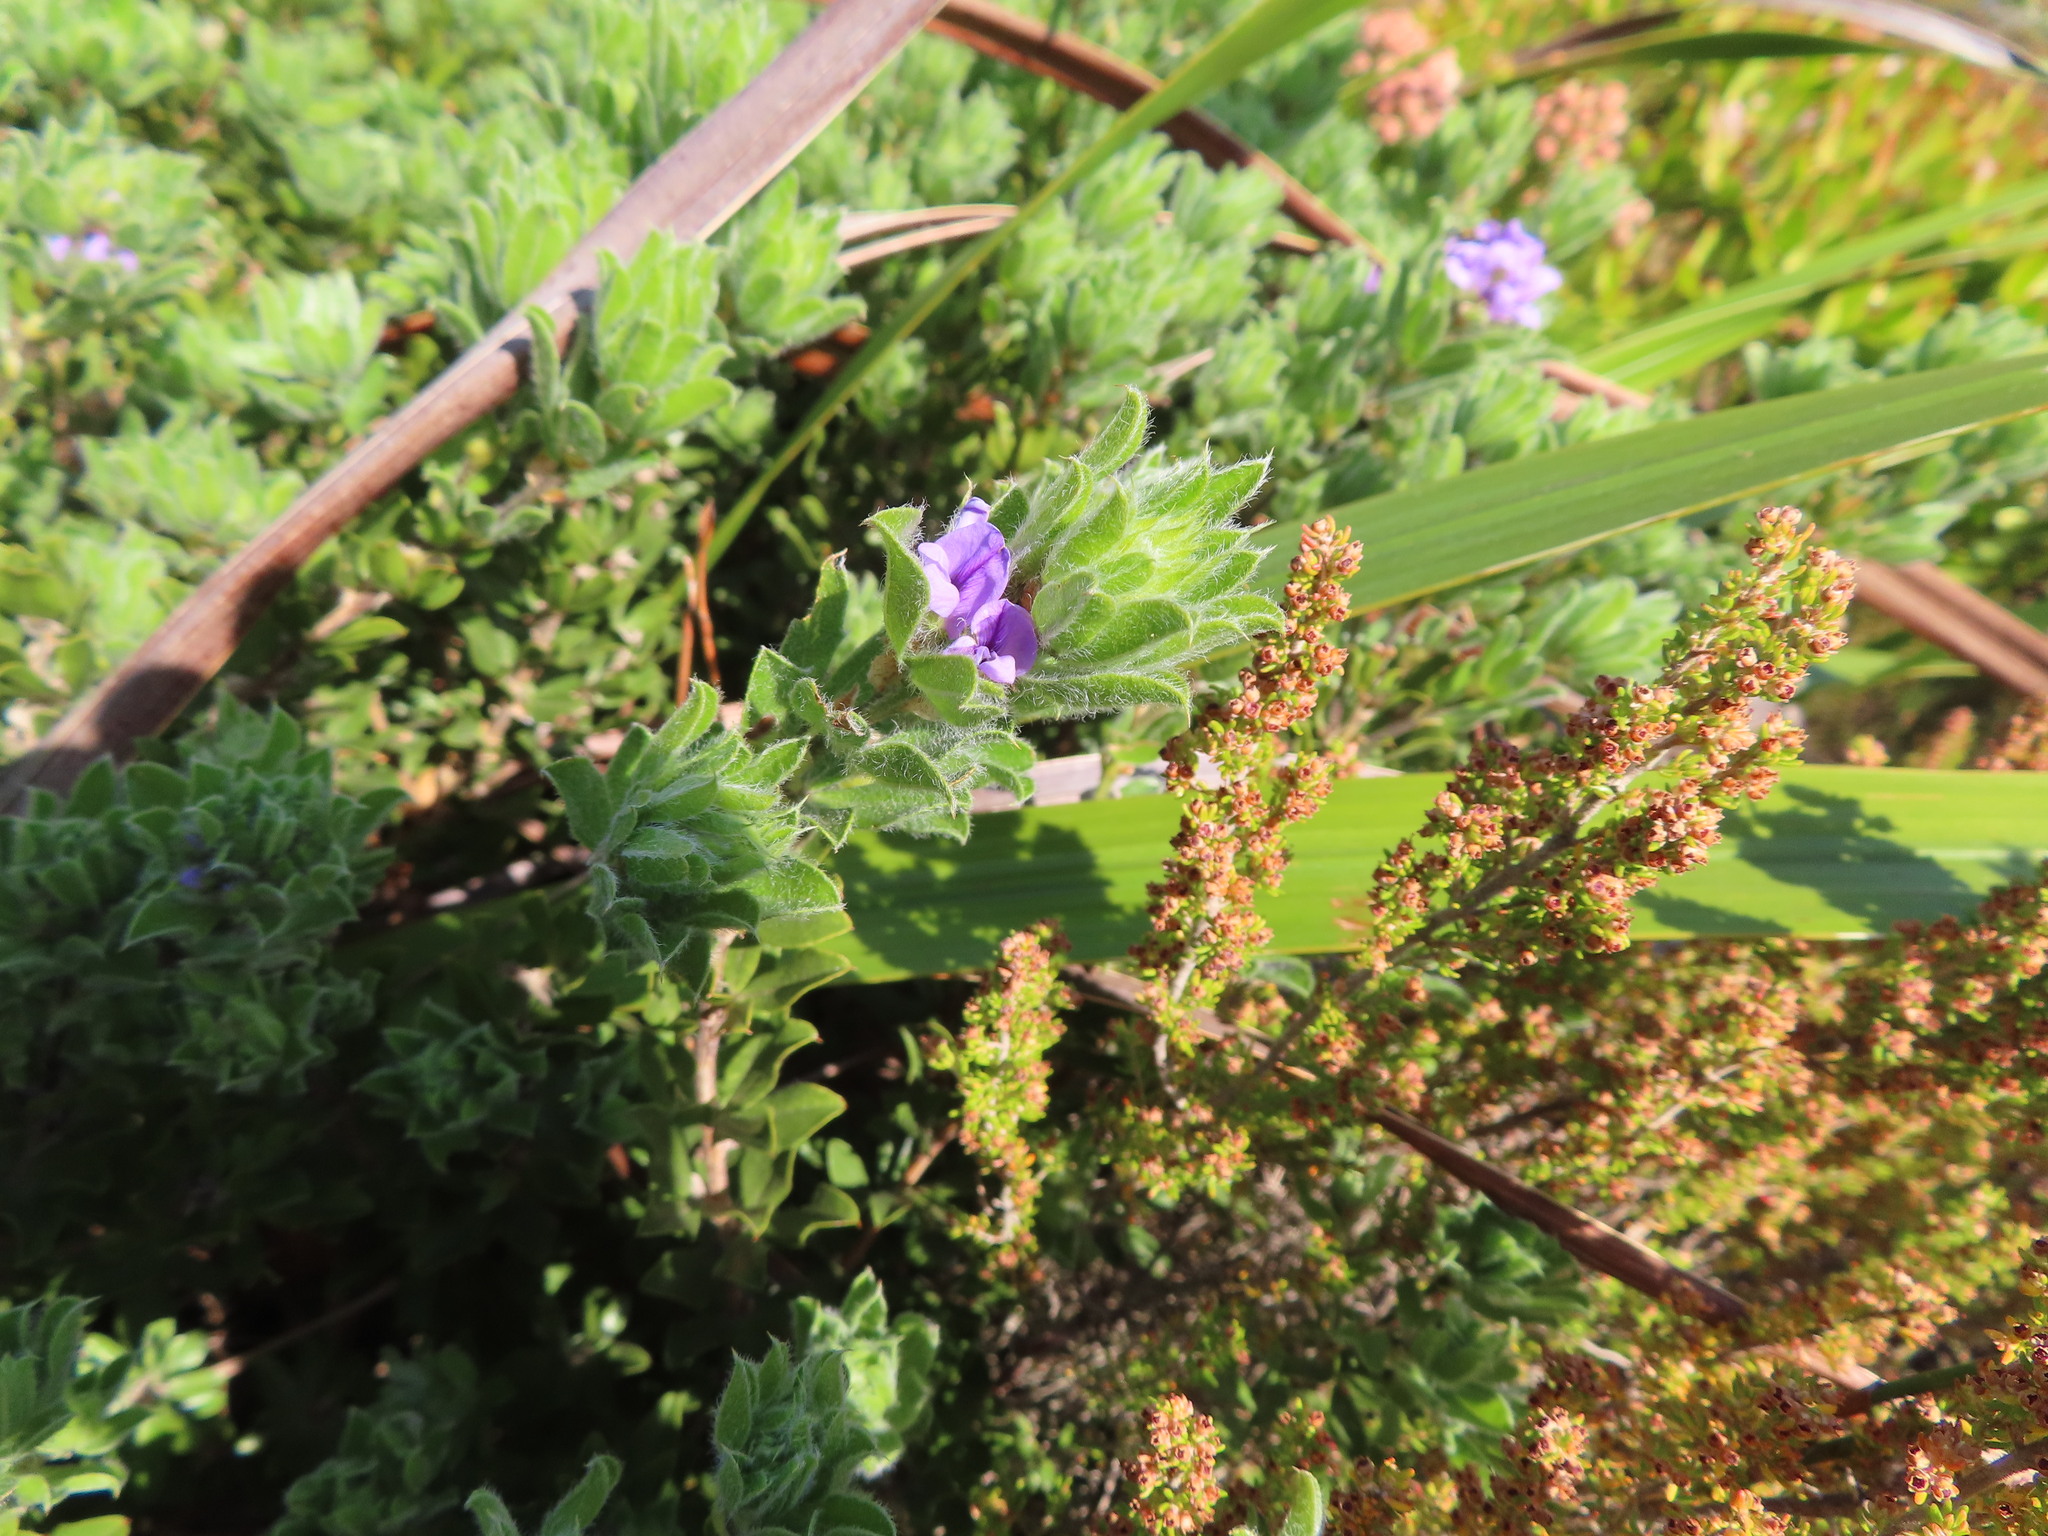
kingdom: Plantae
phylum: Tracheophyta
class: Magnoliopsida
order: Fabales
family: Fabaceae
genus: Psoralea
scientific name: Psoralea obliqua
